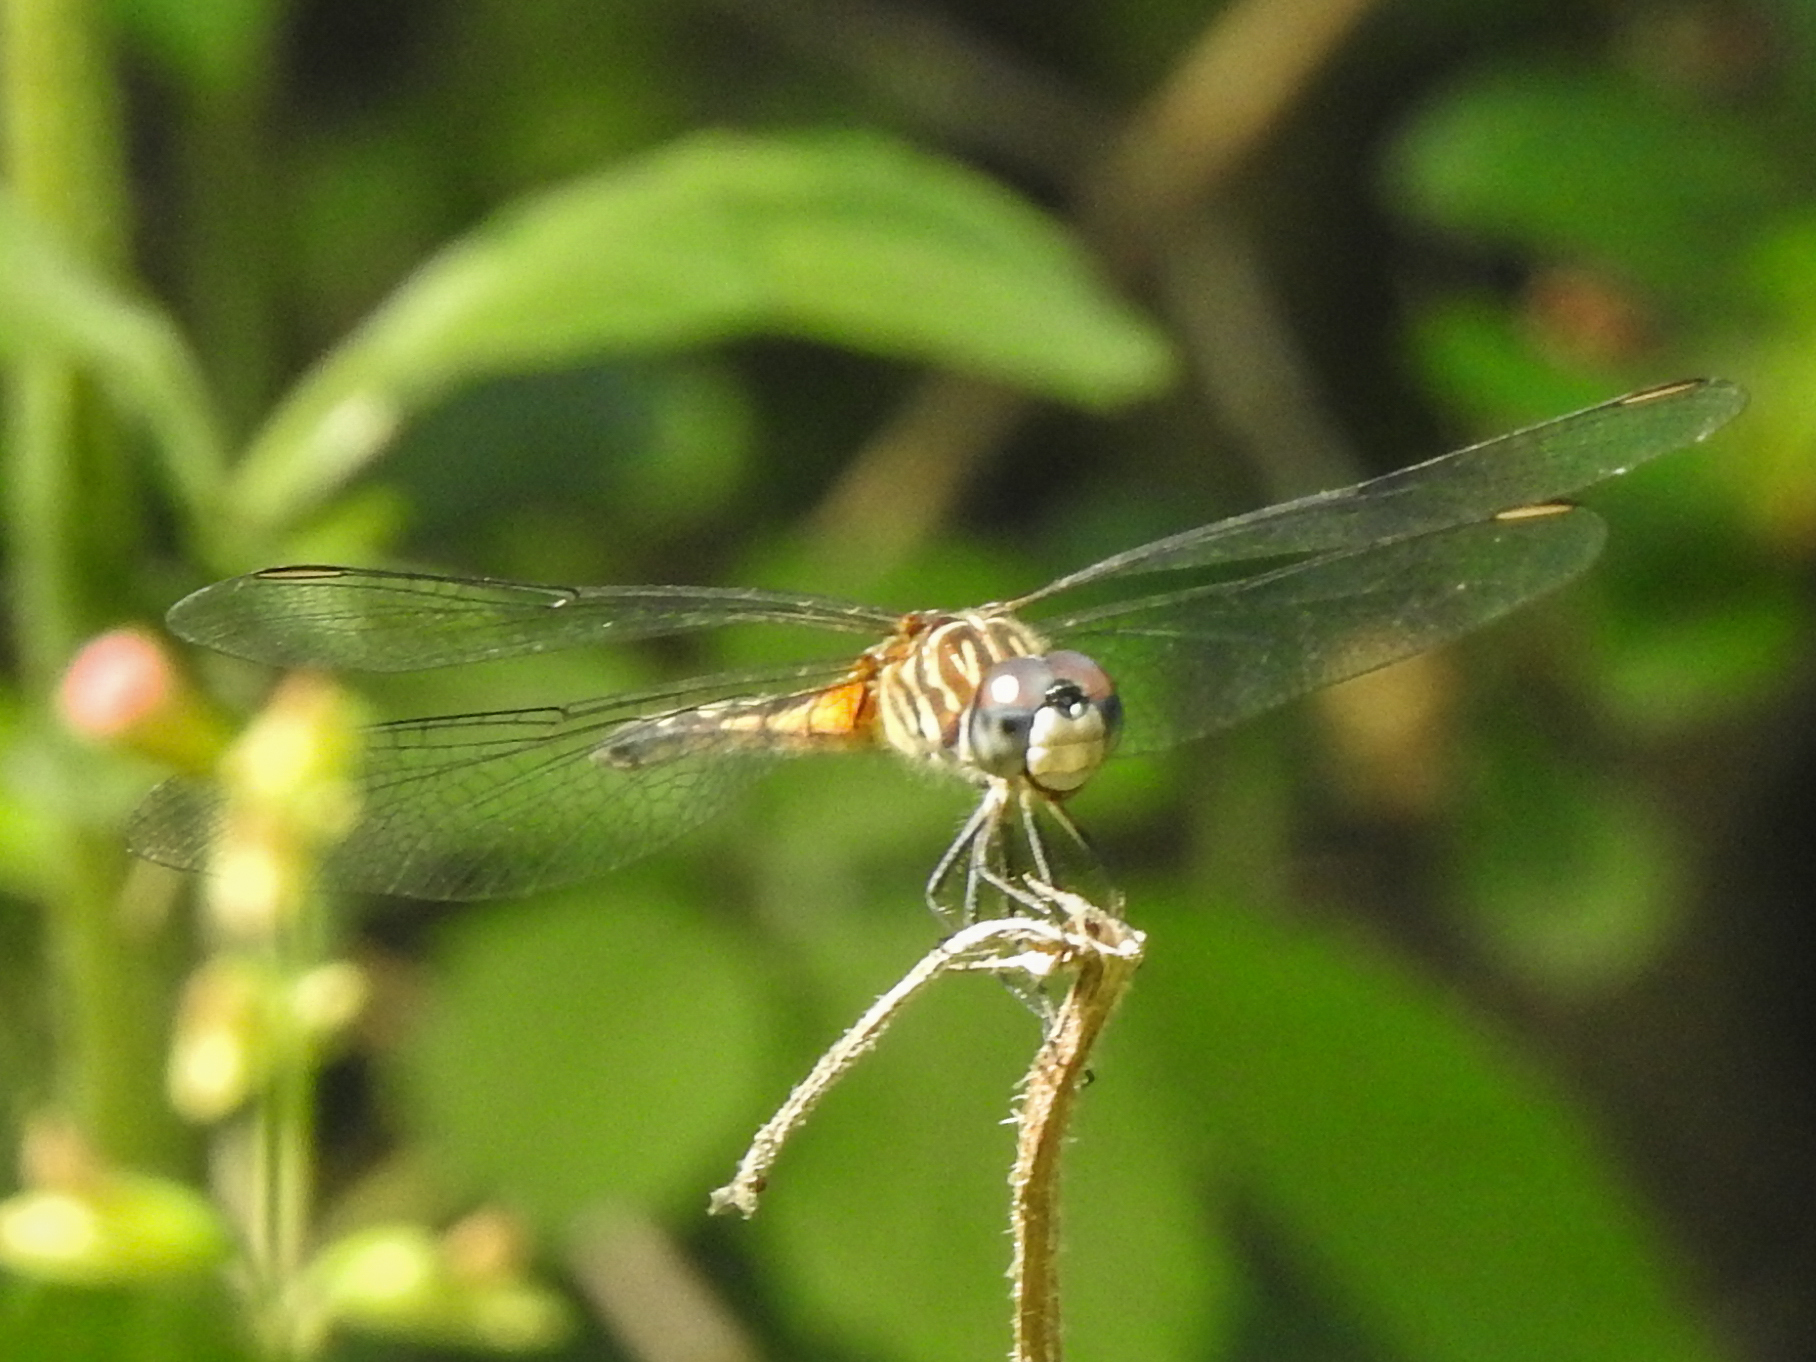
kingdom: Animalia
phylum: Arthropoda
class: Insecta
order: Odonata
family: Libellulidae
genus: Pachydiplax
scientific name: Pachydiplax longipennis
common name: Blue dasher
